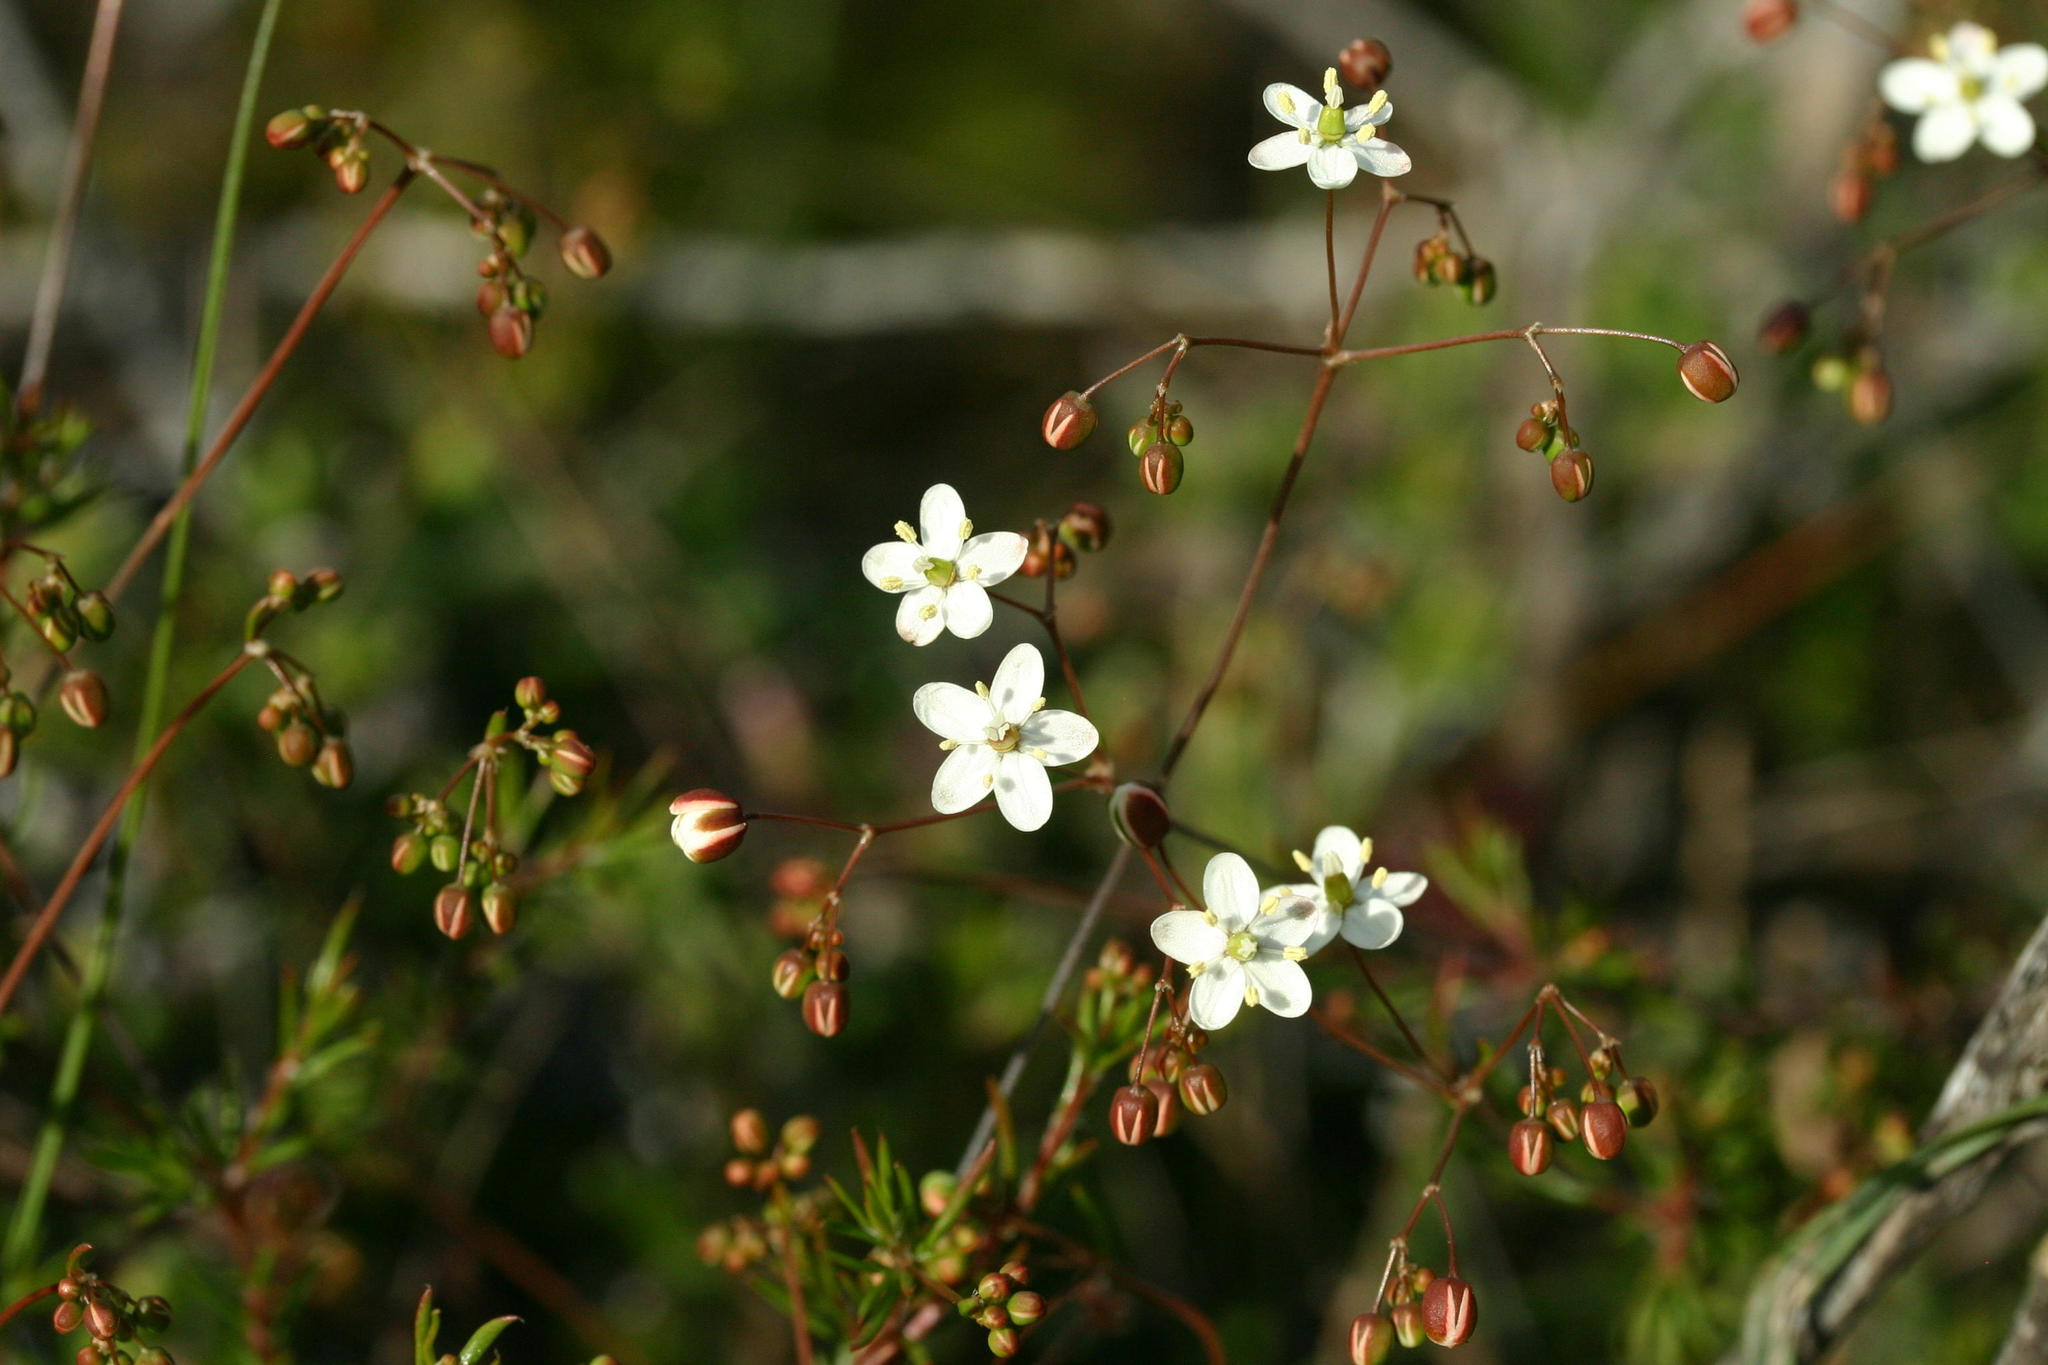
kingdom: Plantae
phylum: Tracheophyta
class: Magnoliopsida
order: Caryophyllales
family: Molluginaceae
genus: Pharnaceum
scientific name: Pharnaceum aurantium
